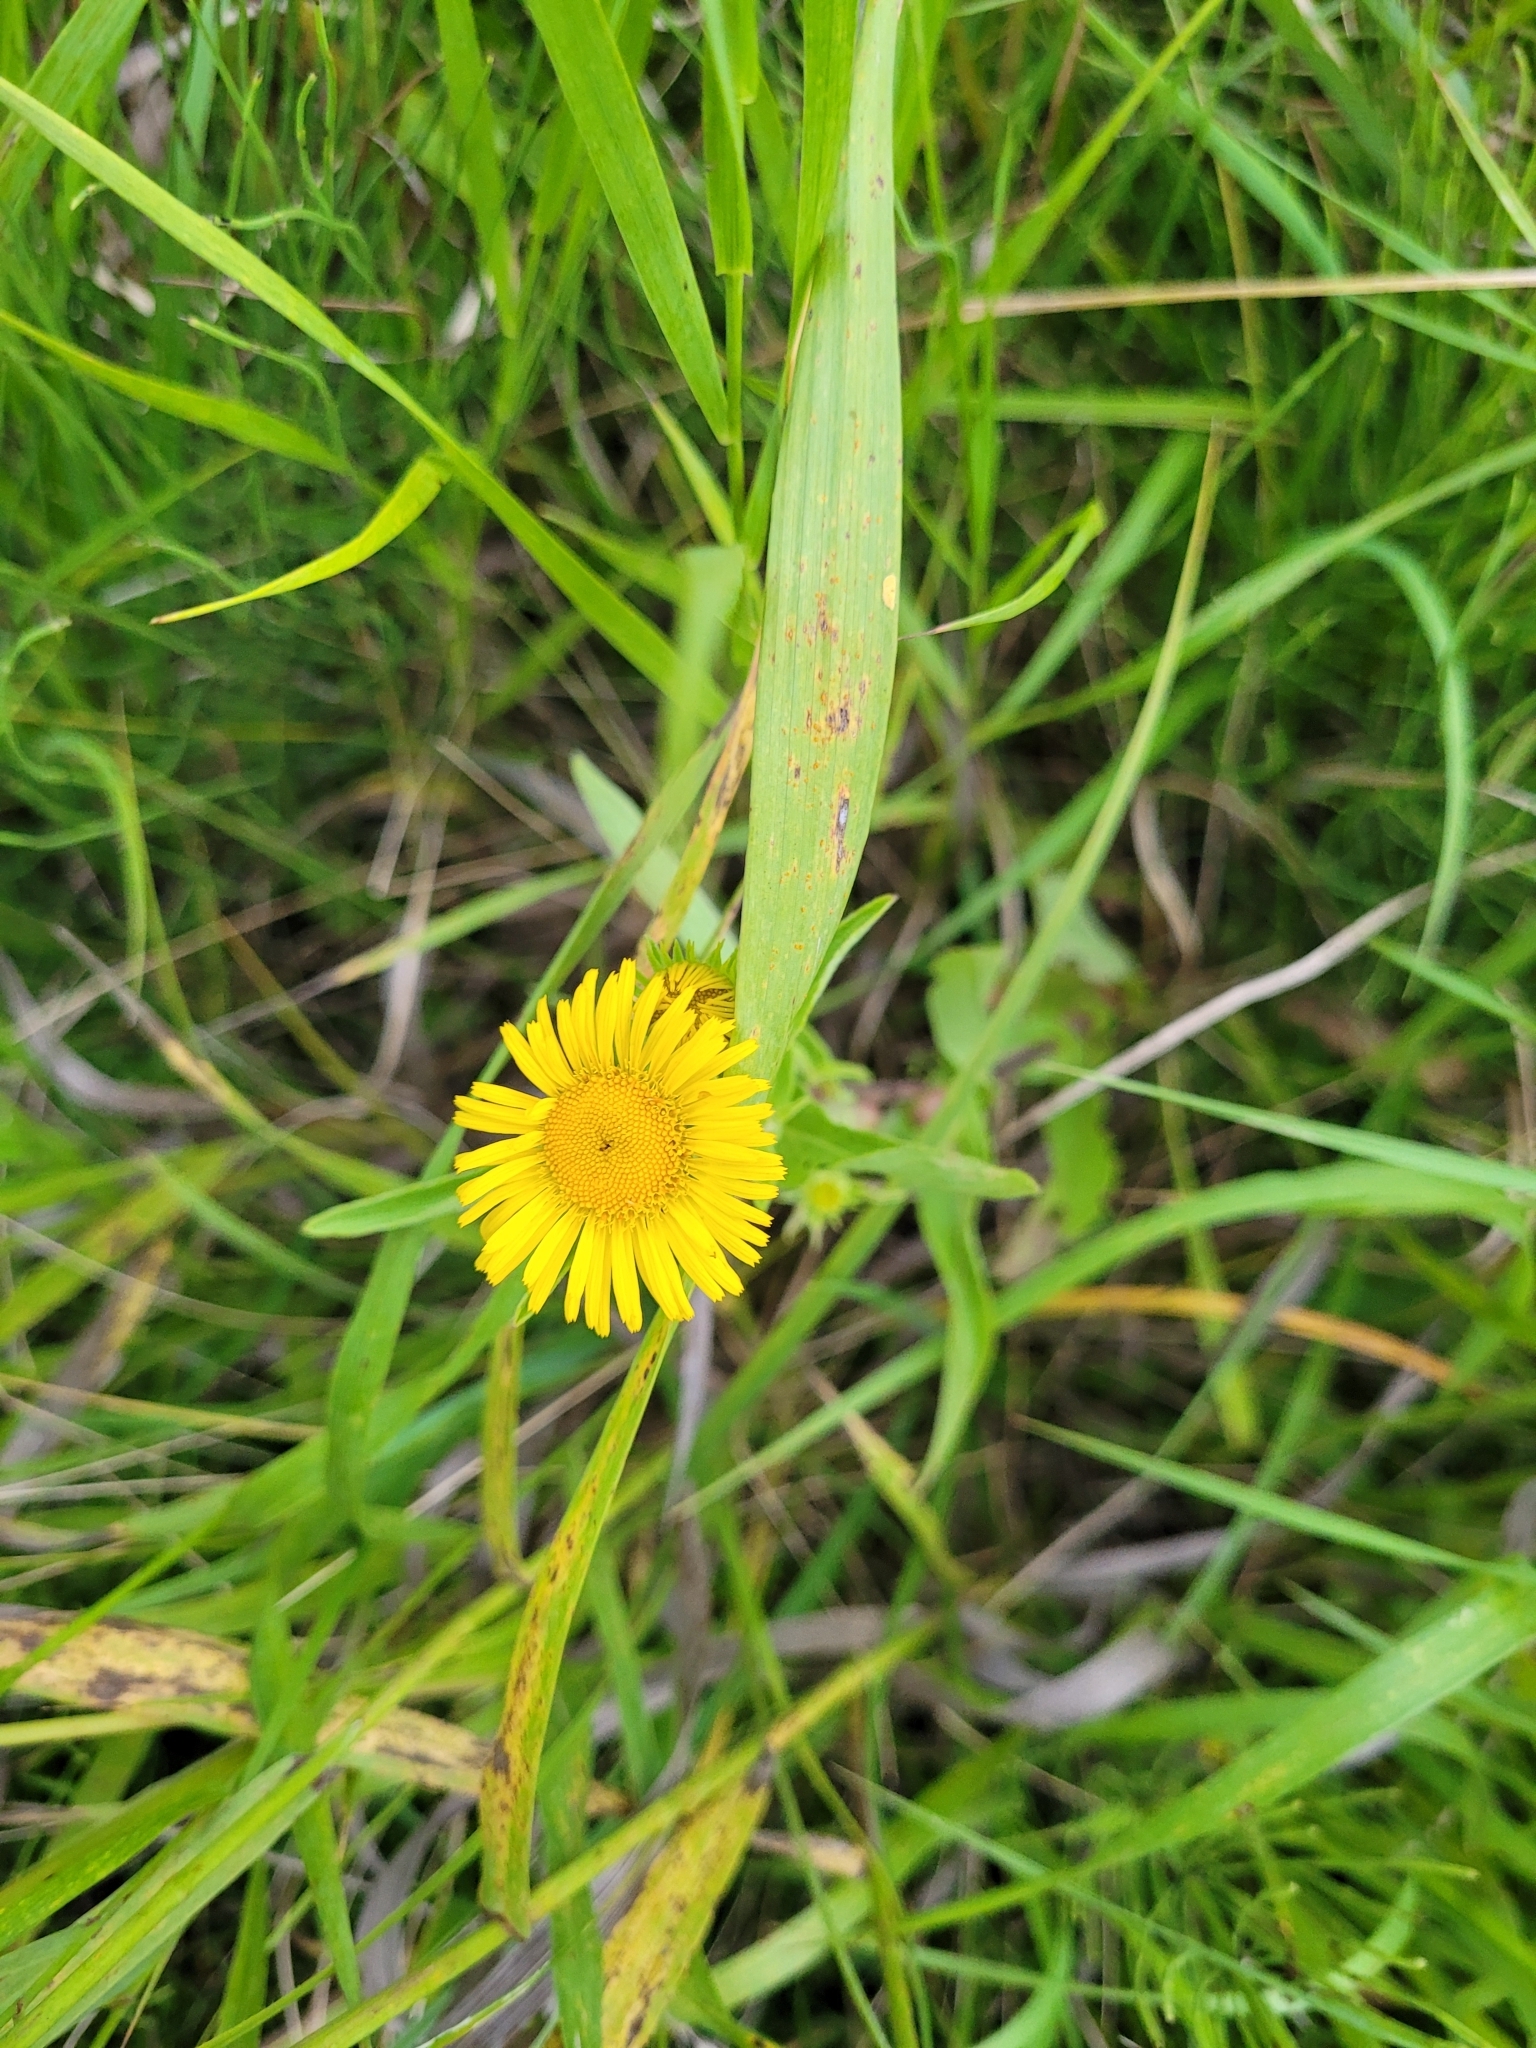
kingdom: Plantae
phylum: Tracheophyta
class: Magnoliopsida
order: Asterales
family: Asteraceae
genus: Pentanema
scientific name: Pentanema britannicum
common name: British elecampane
